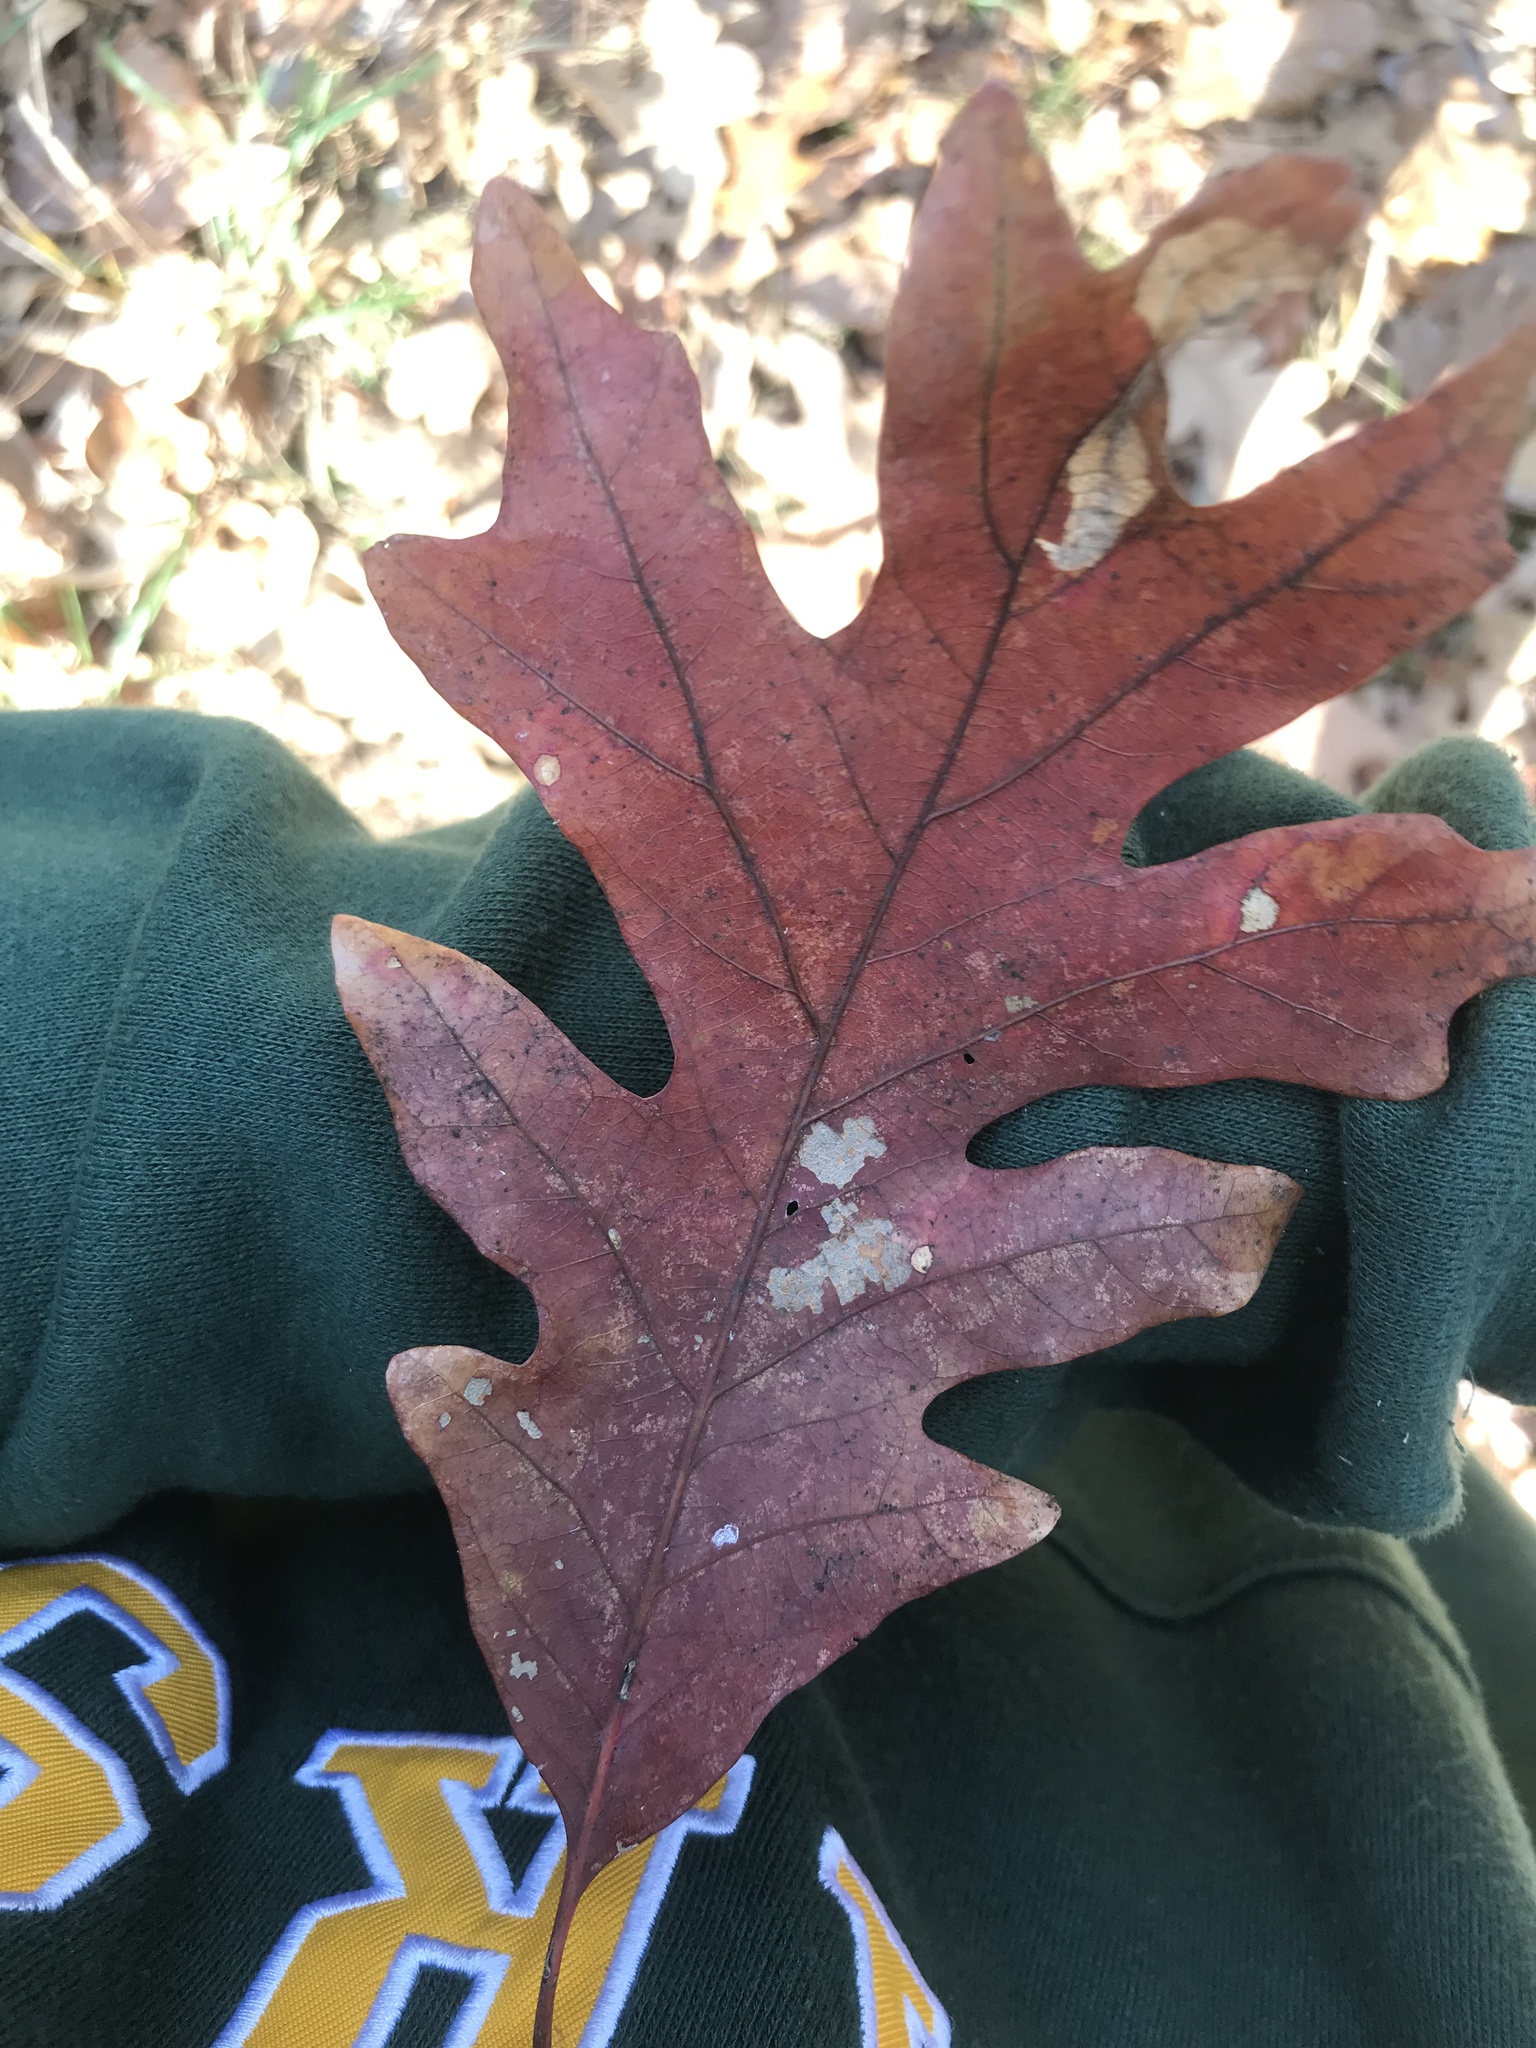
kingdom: Plantae
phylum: Tracheophyta
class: Magnoliopsida
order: Fagales
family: Fagaceae
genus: Quercus
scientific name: Quercus alba
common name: White oak
